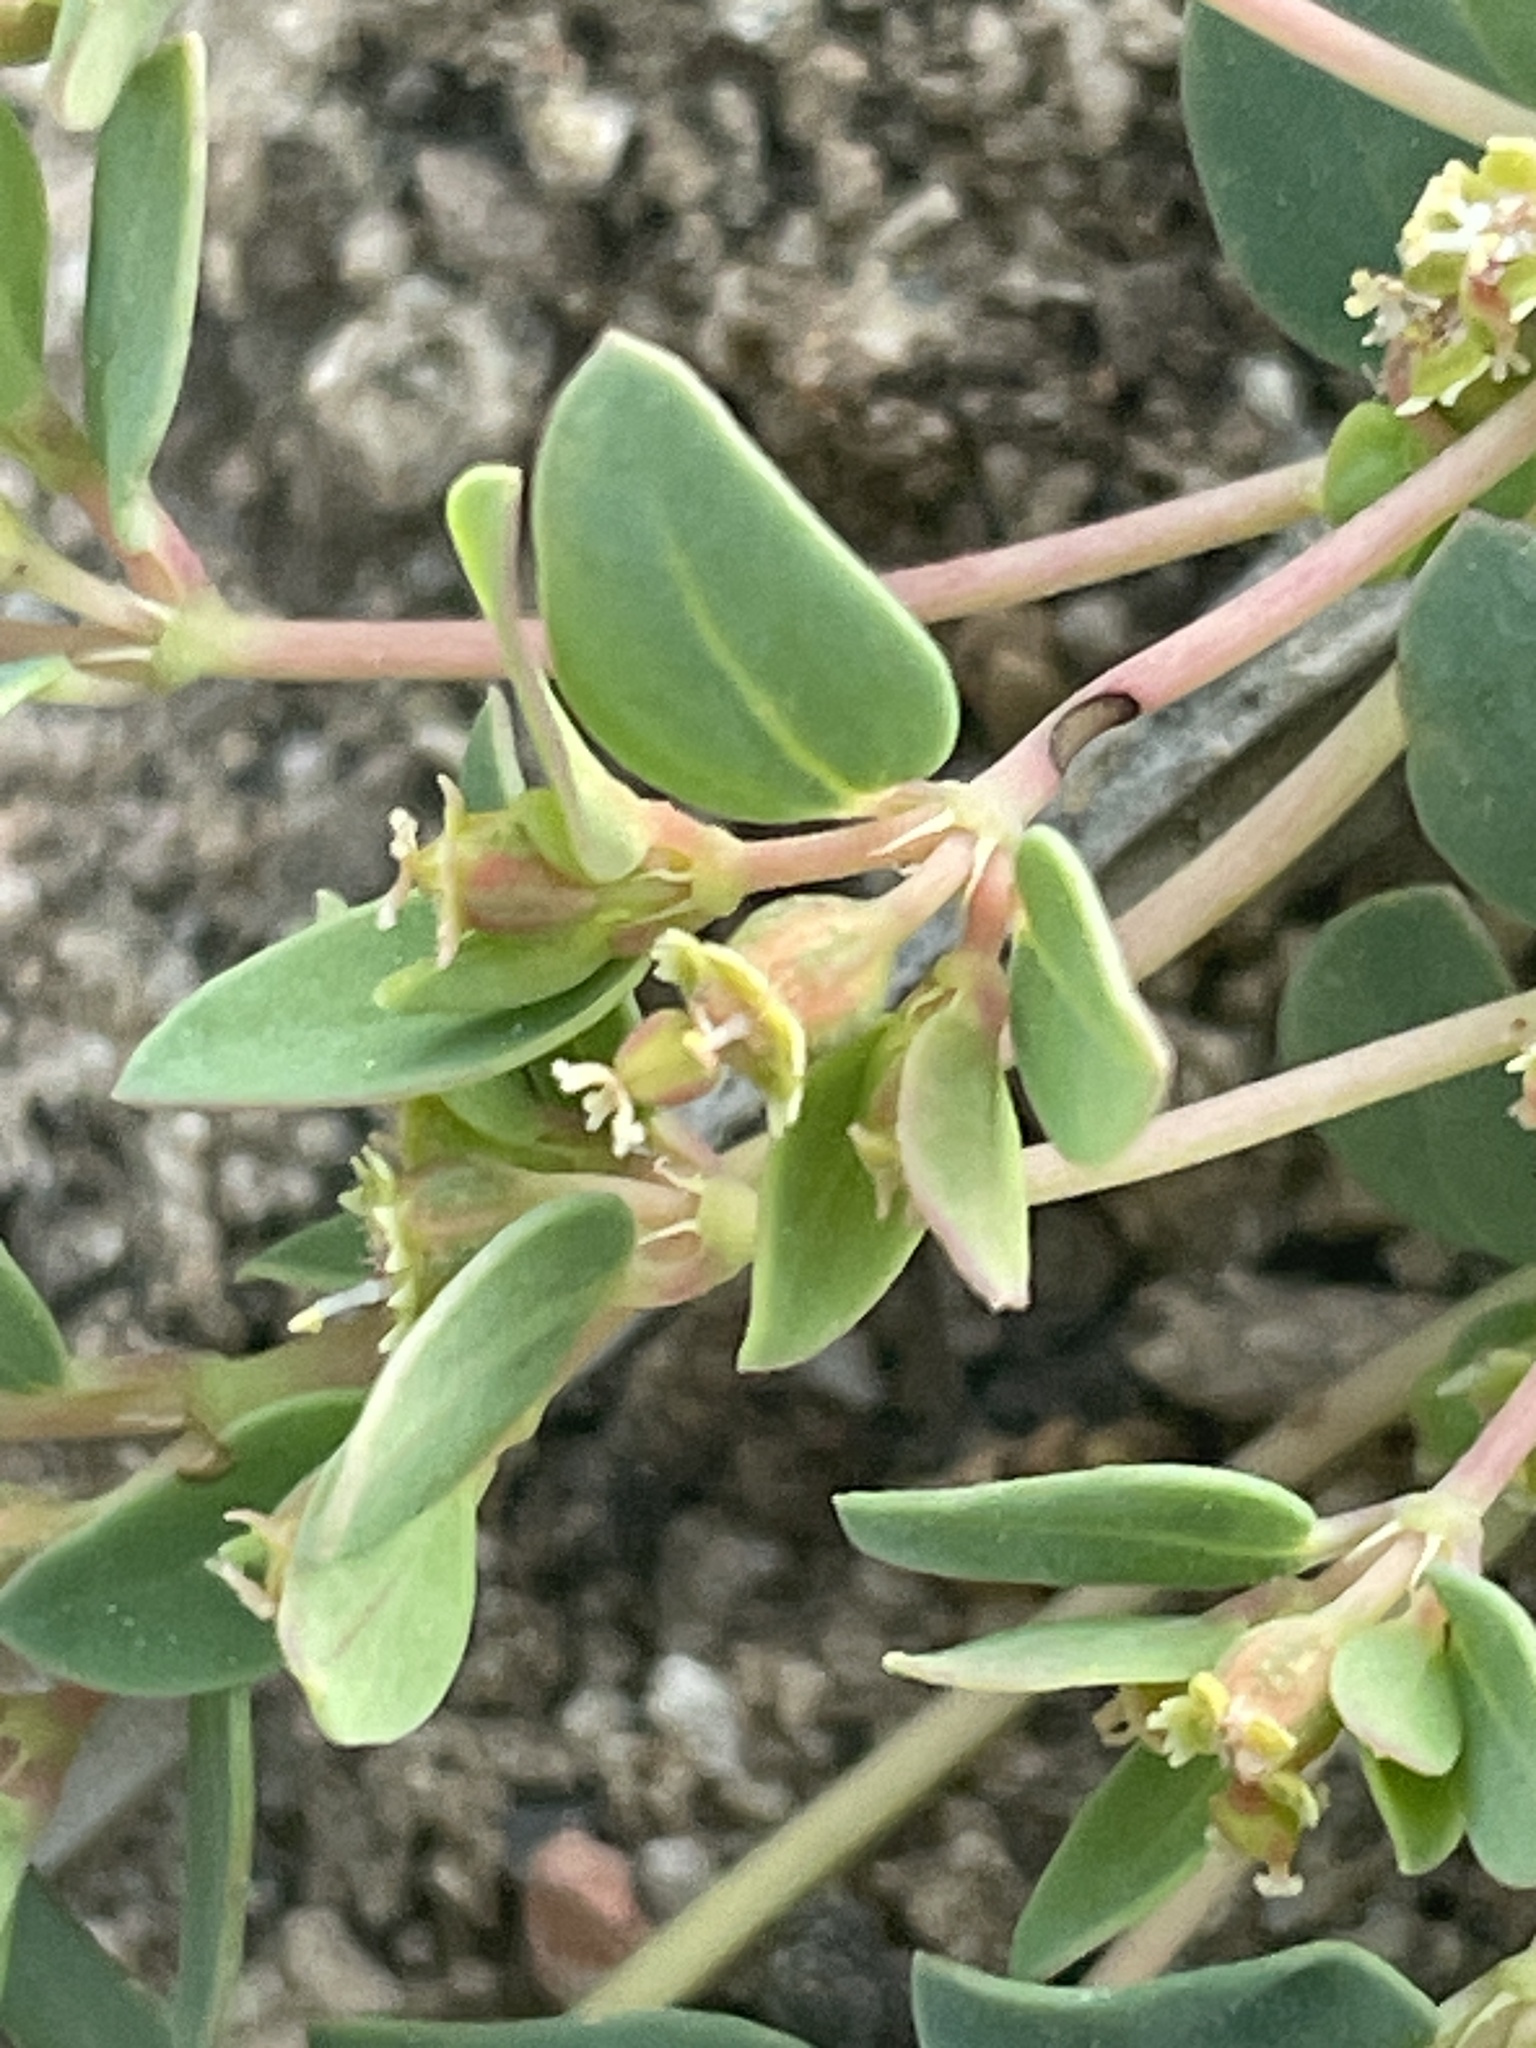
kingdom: Plantae
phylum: Tracheophyta
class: Magnoliopsida
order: Malpighiales
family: Euphorbiaceae
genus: Euphorbia
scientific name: Euphorbia fendleri
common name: Fendler's euphorbia
